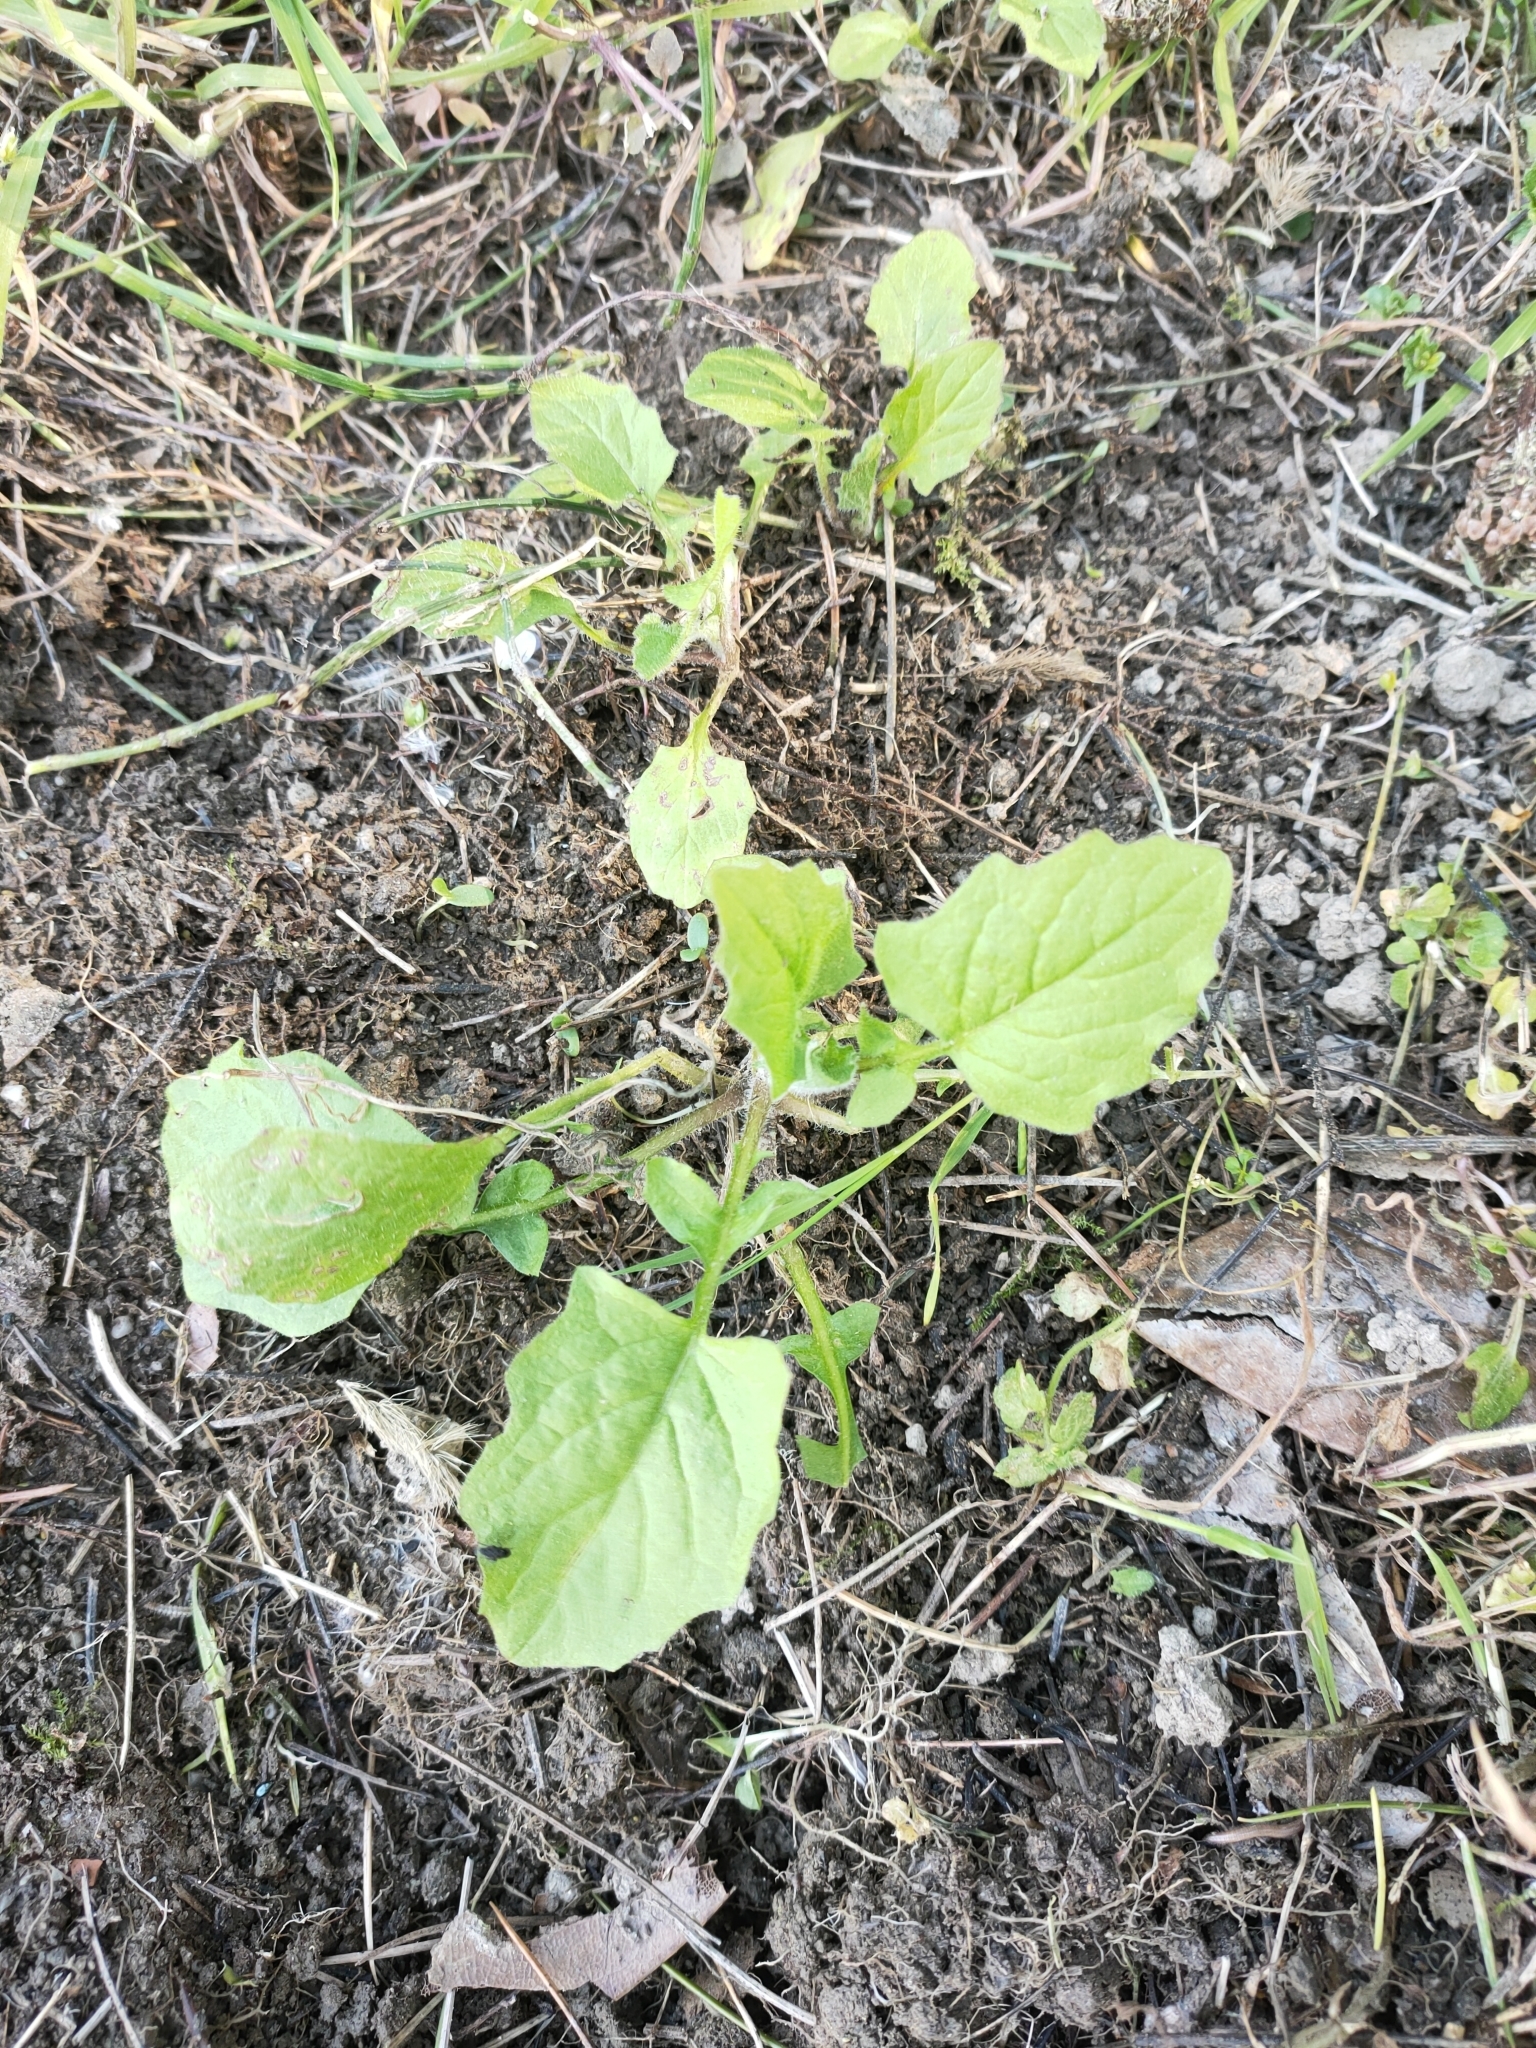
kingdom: Plantae
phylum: Tracheophyta
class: Magnoliopsida
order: Asterales
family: Asteraceae
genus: Lapsana
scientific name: Lapsana communis
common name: Nipplewort
